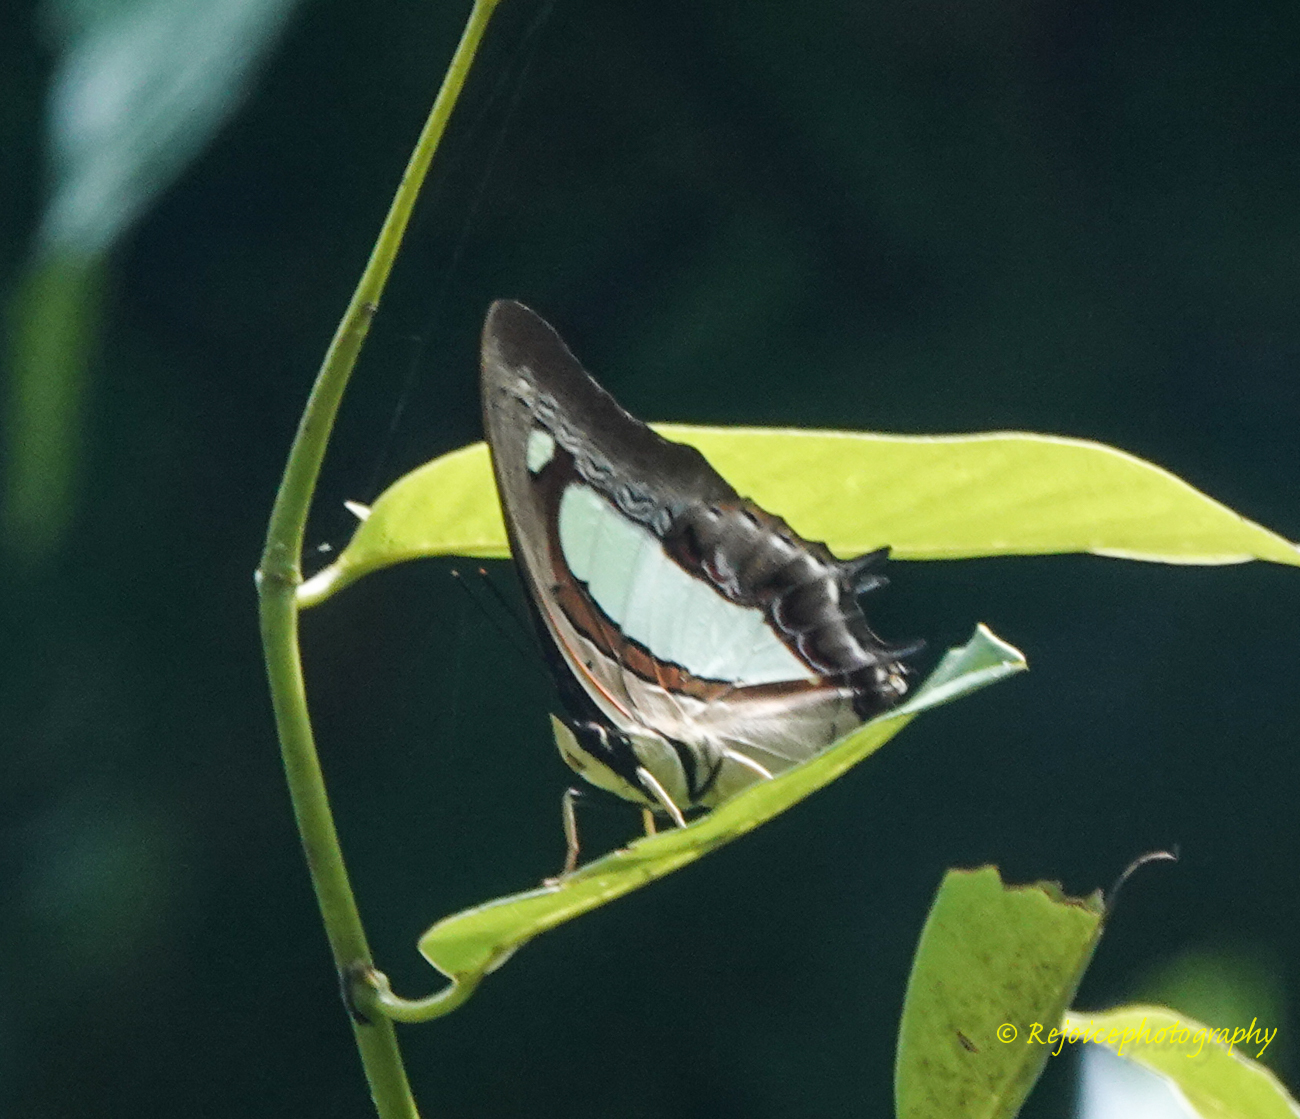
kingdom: Animalia
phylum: Arthropoda
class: Insecta
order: Lepidoptera
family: Nymphalidae
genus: Polyura
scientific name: Polyura athamas
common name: Common nawab
